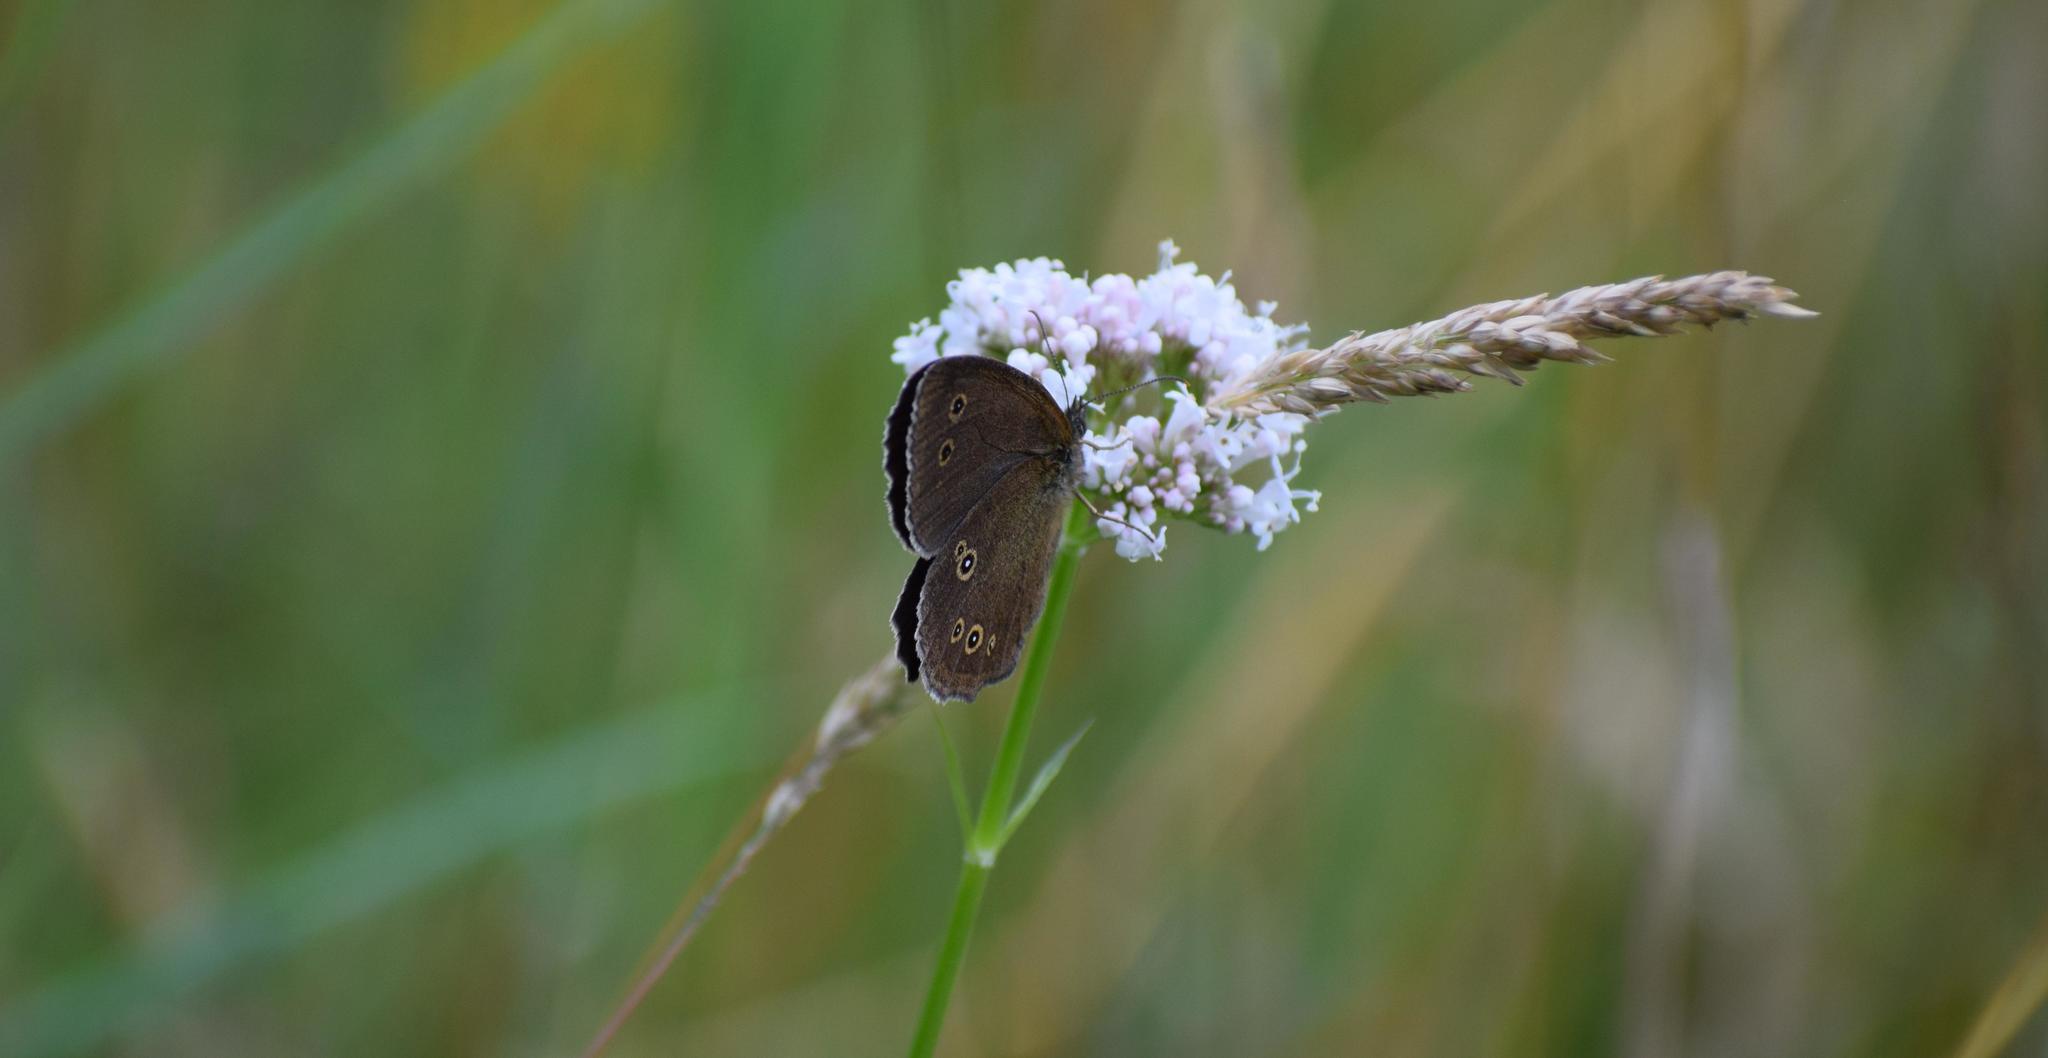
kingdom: Animalia
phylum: Arthropoda
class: Insecta
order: Lepidoptera
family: Nymphalidae
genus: Aphantopus
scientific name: Aphantopus hyperantus
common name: Ringlet
